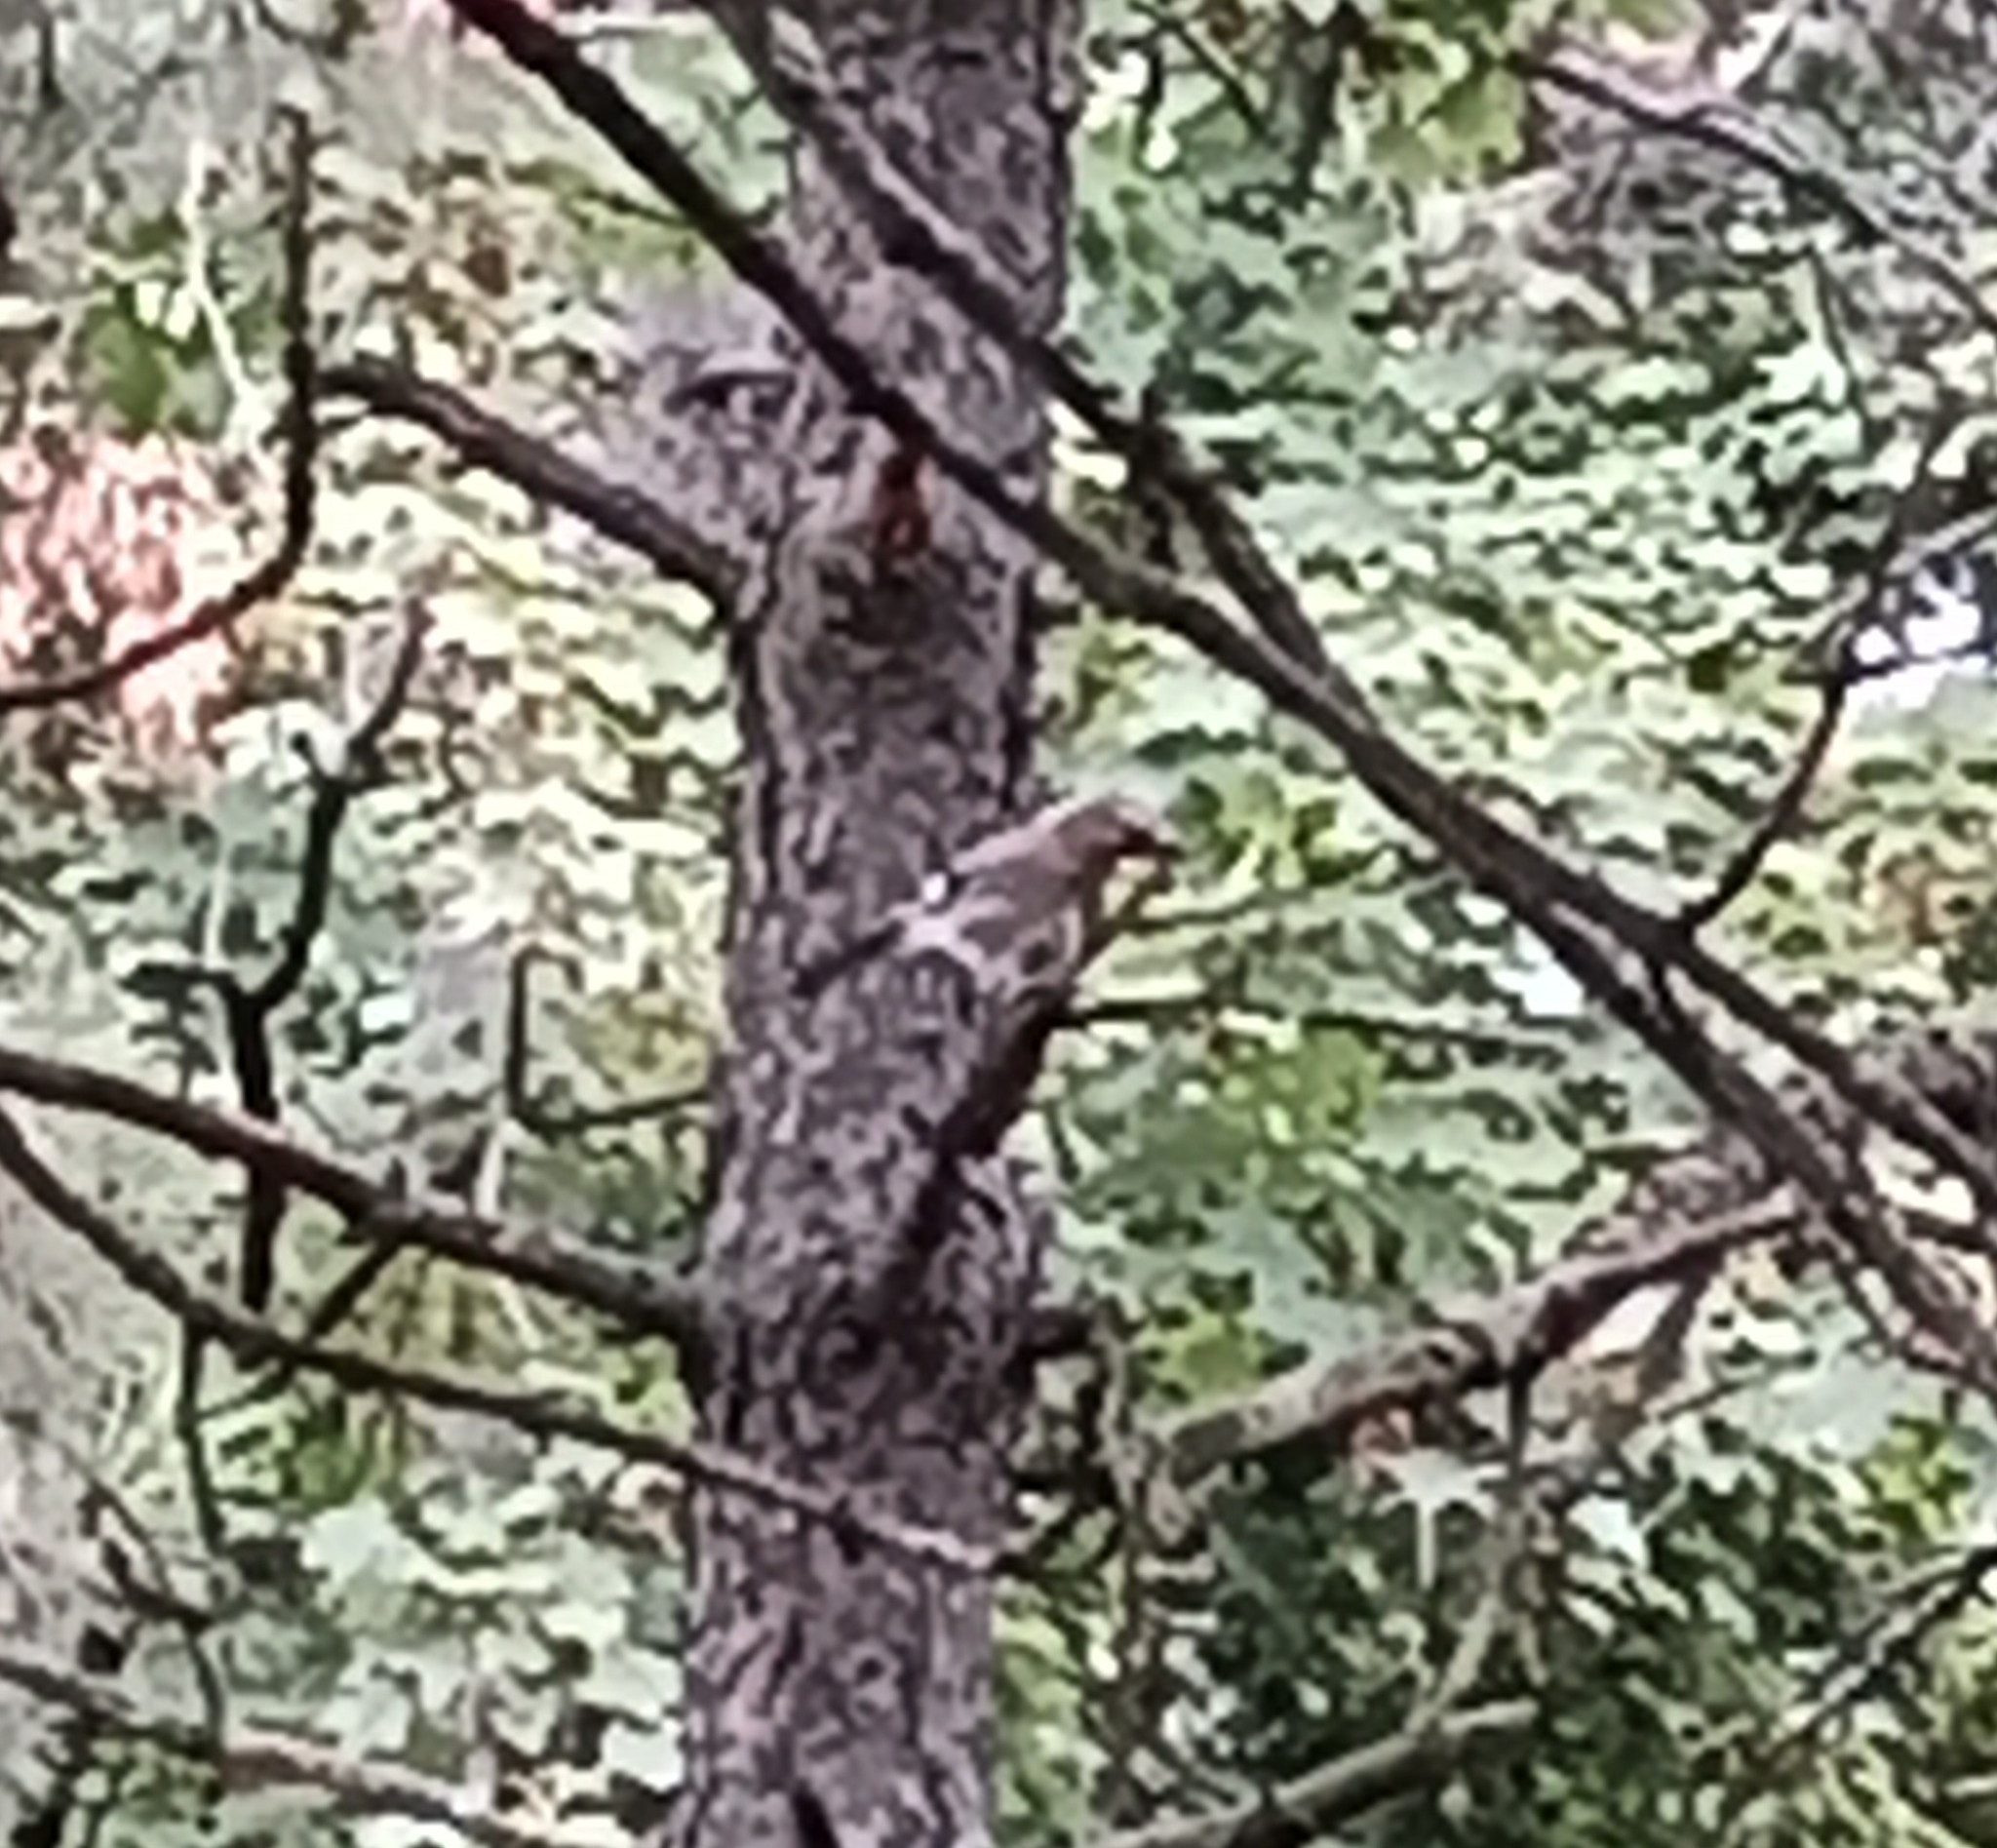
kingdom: Animalia
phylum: Chordata
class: Aves
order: Passeriformes
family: Corvidae
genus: Garrulus
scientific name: Garrulus glandarius
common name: Eurasian jay
